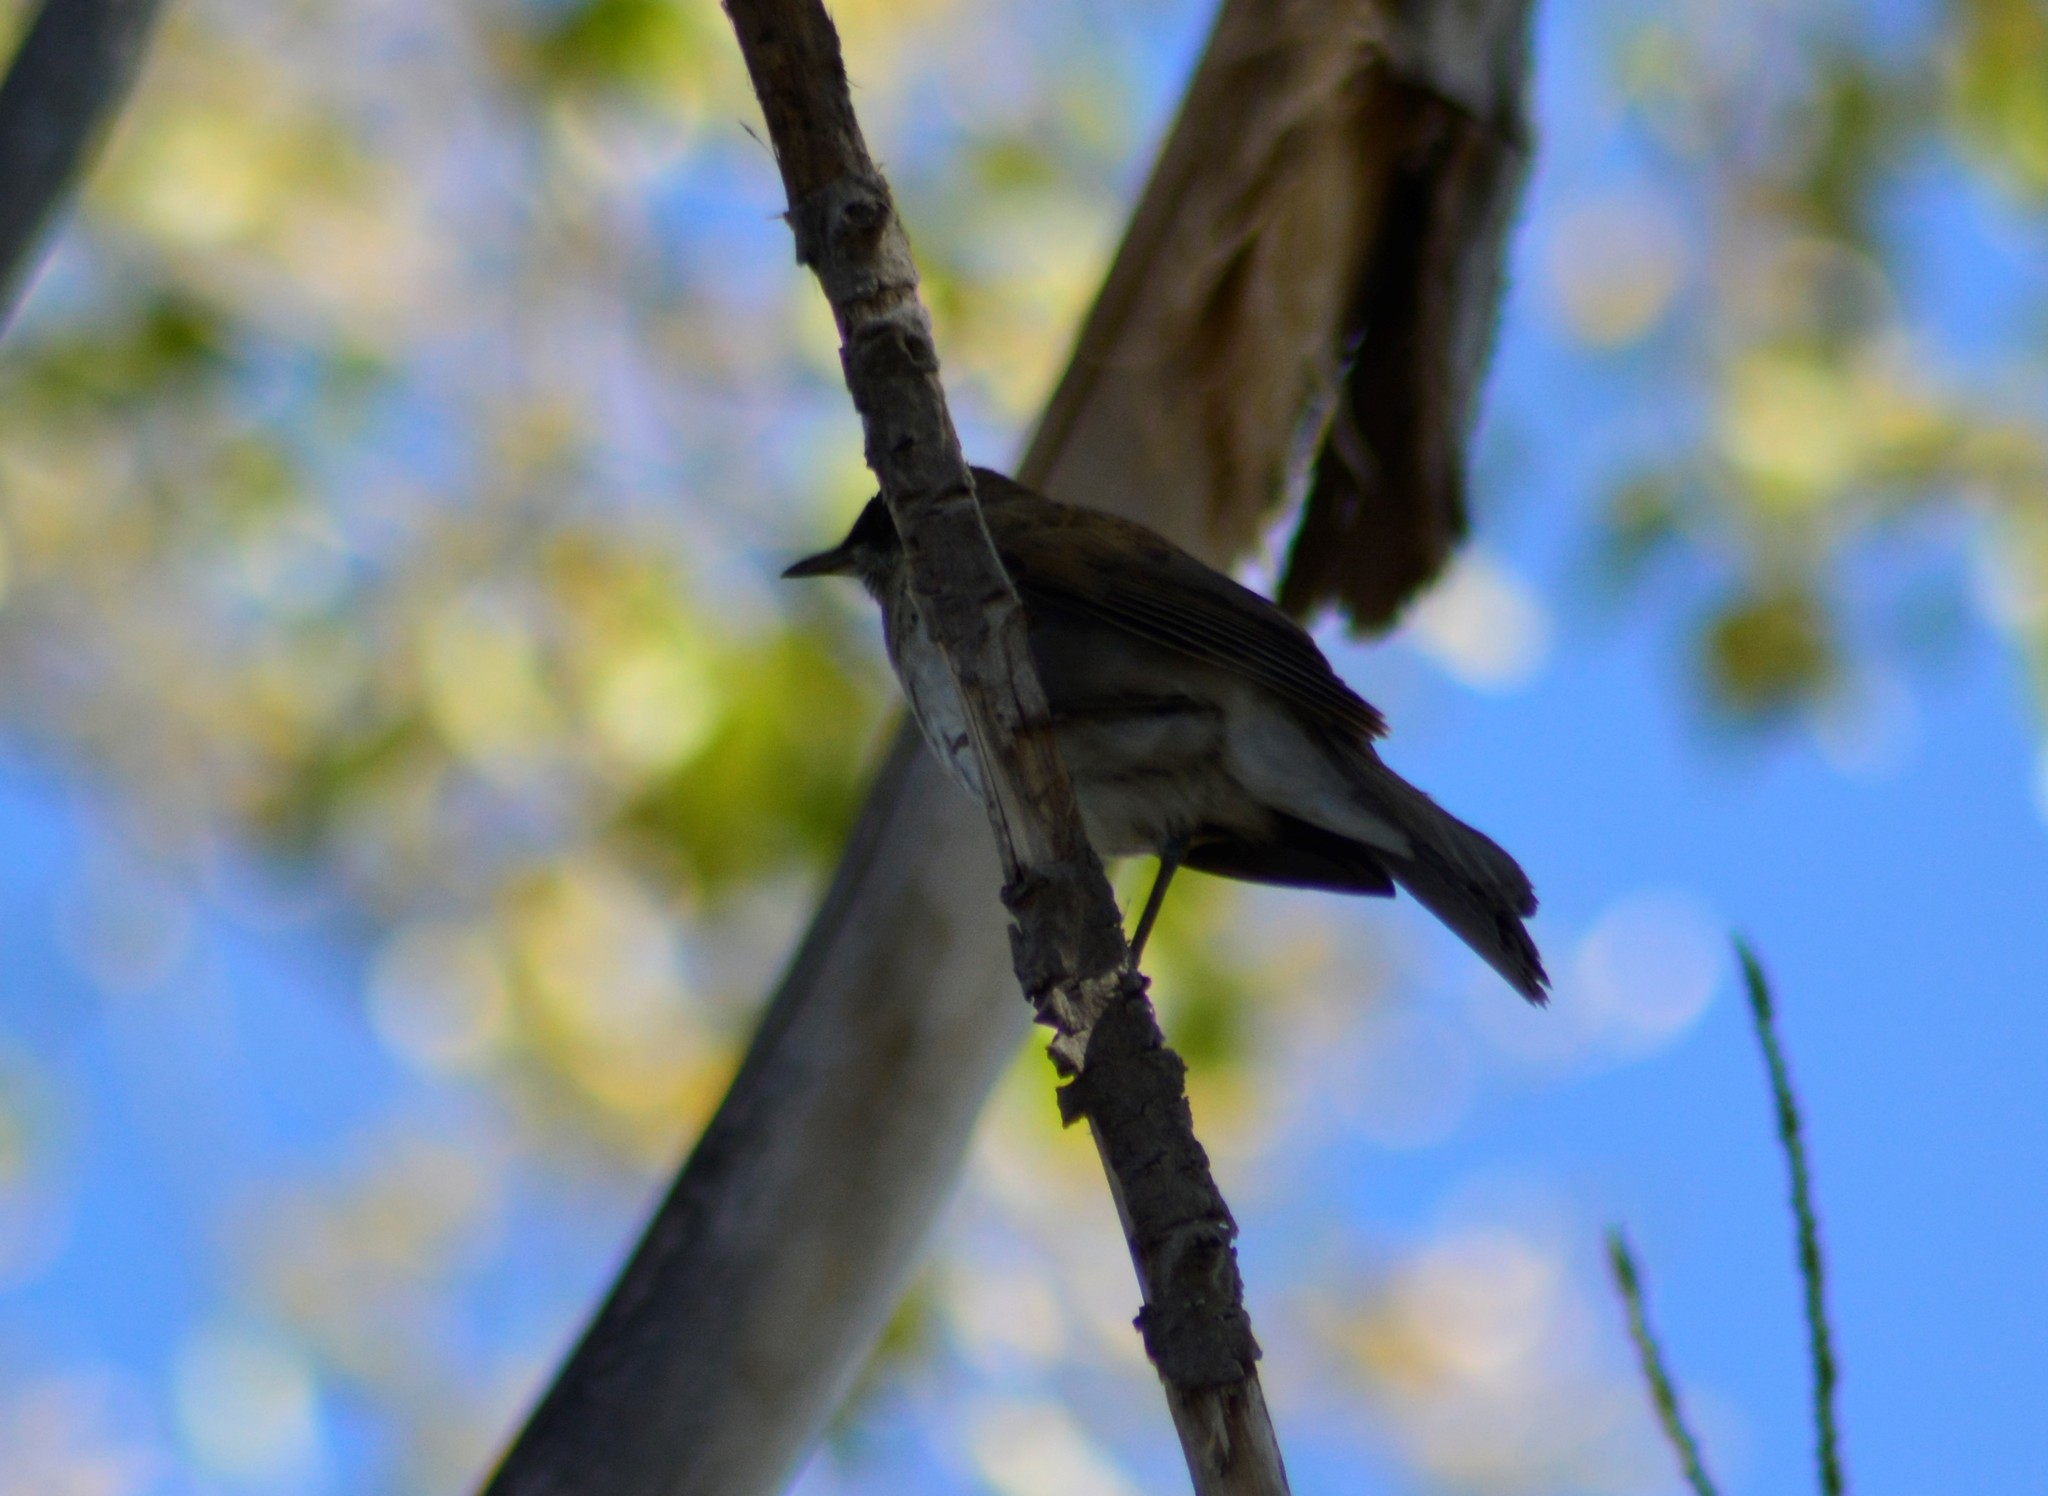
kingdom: Animalia
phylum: Chordata
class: Aves
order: Passeriformes
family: Turdidae
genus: Turdus
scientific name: Turdus amaurochalinus
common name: Creamy-bellied thrush
